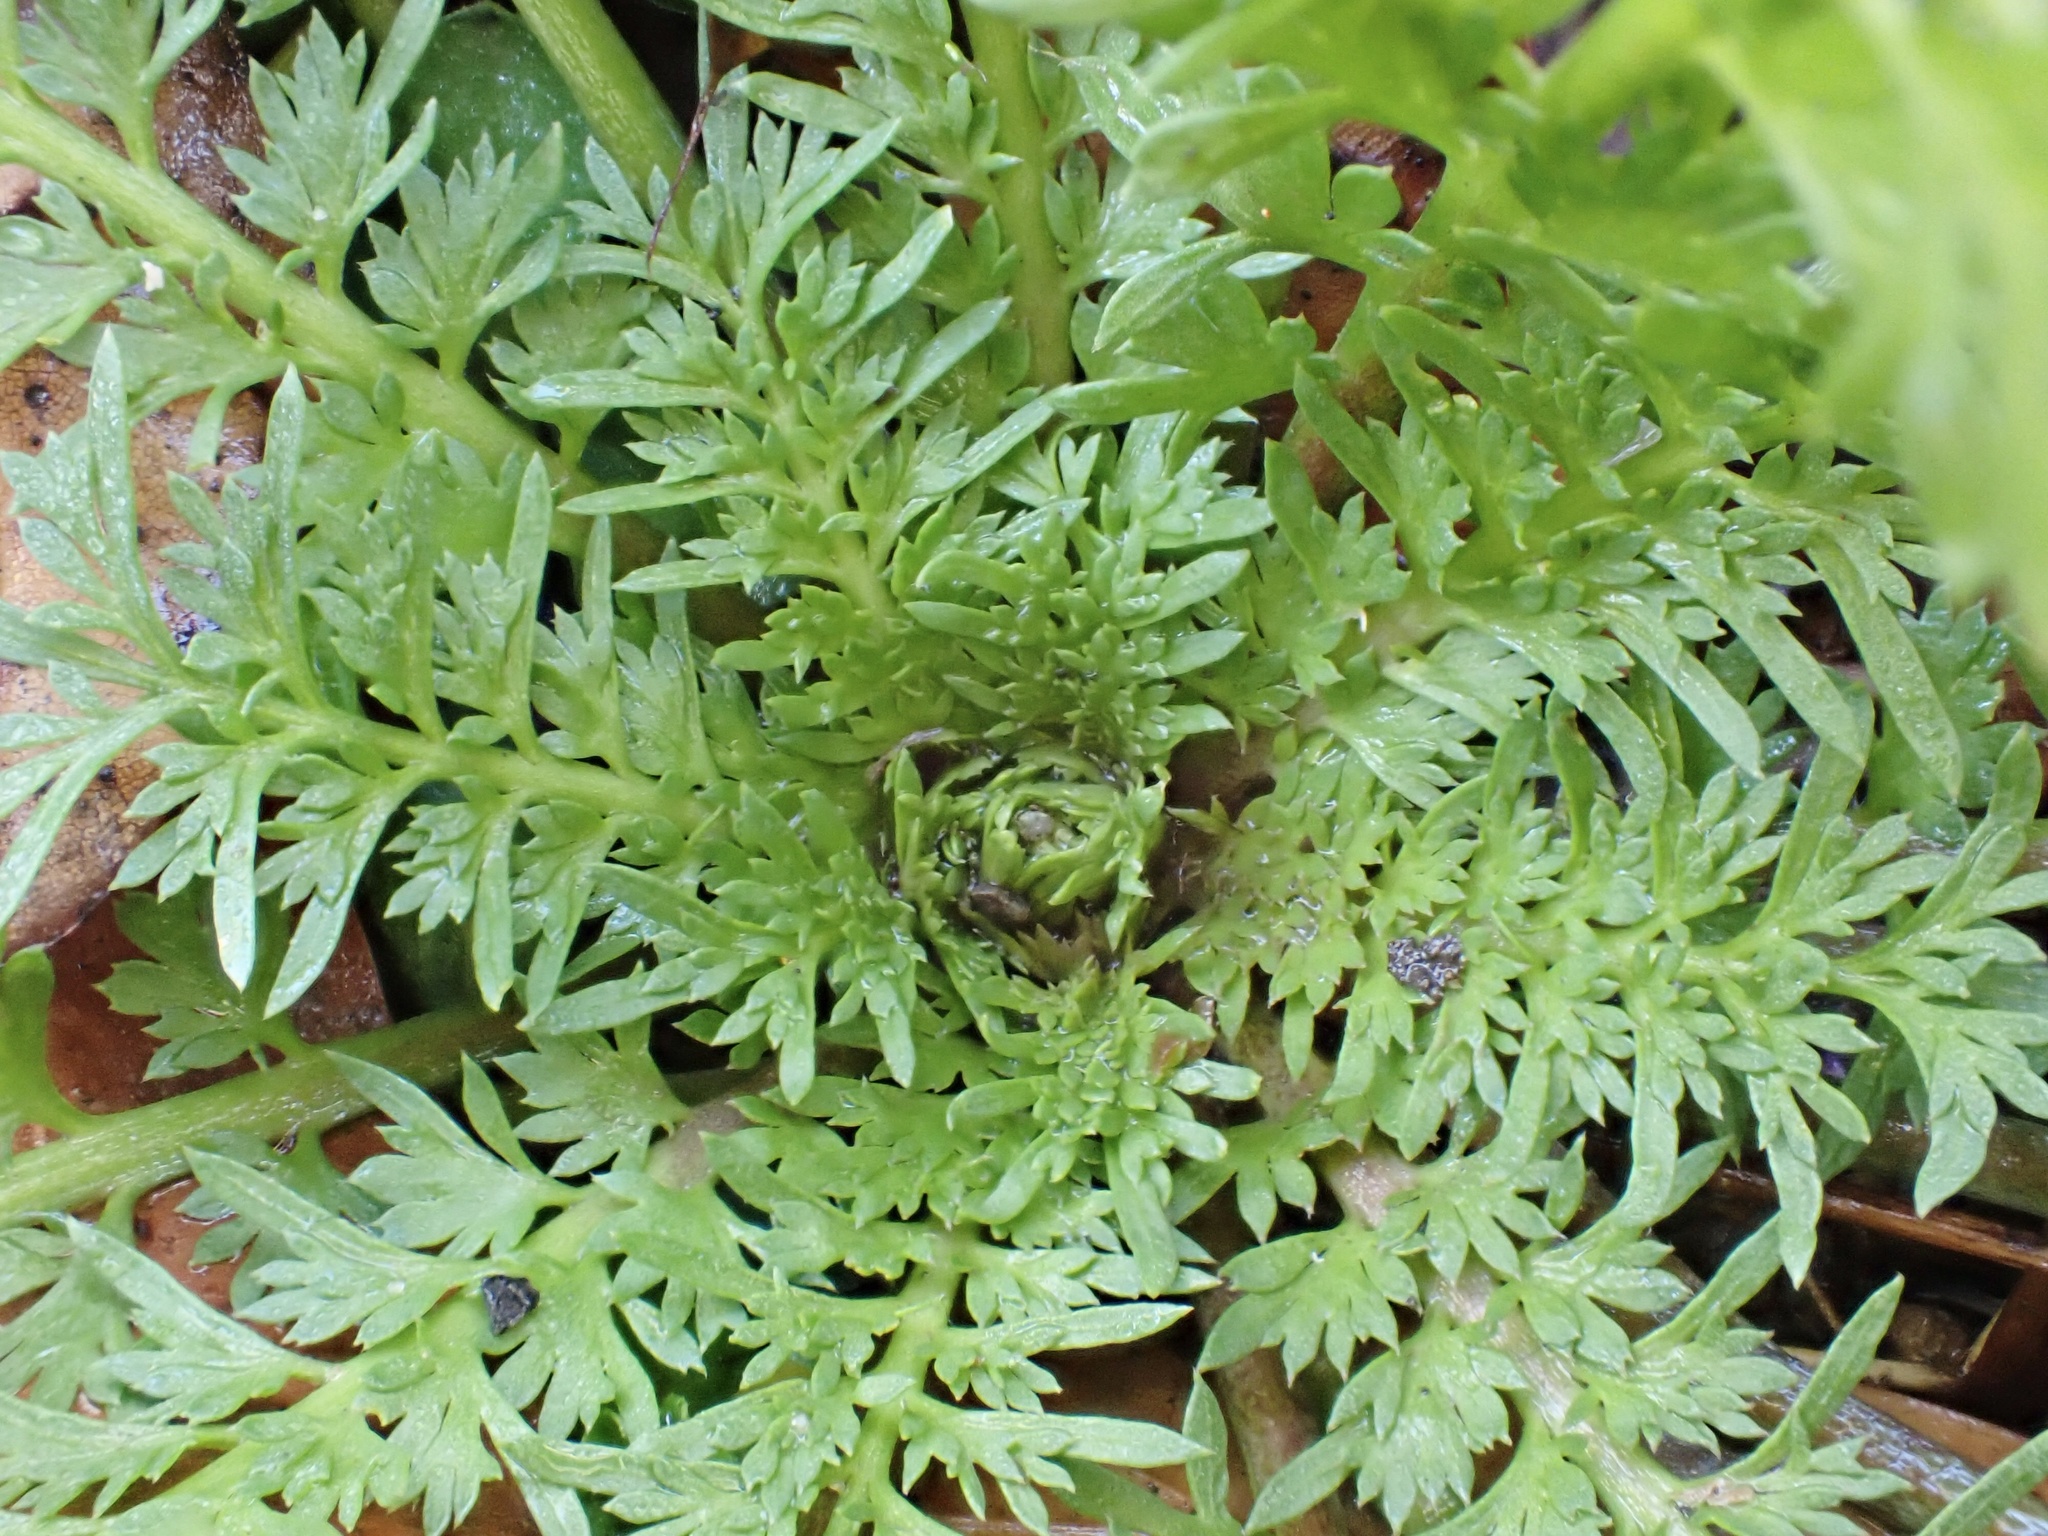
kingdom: Plantae
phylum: Tracheophyta
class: Magnoliopsida
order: Brassicales
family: Brassicaceae
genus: Lepidium
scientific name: Lepidium didymum
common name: Lesser swinecress
